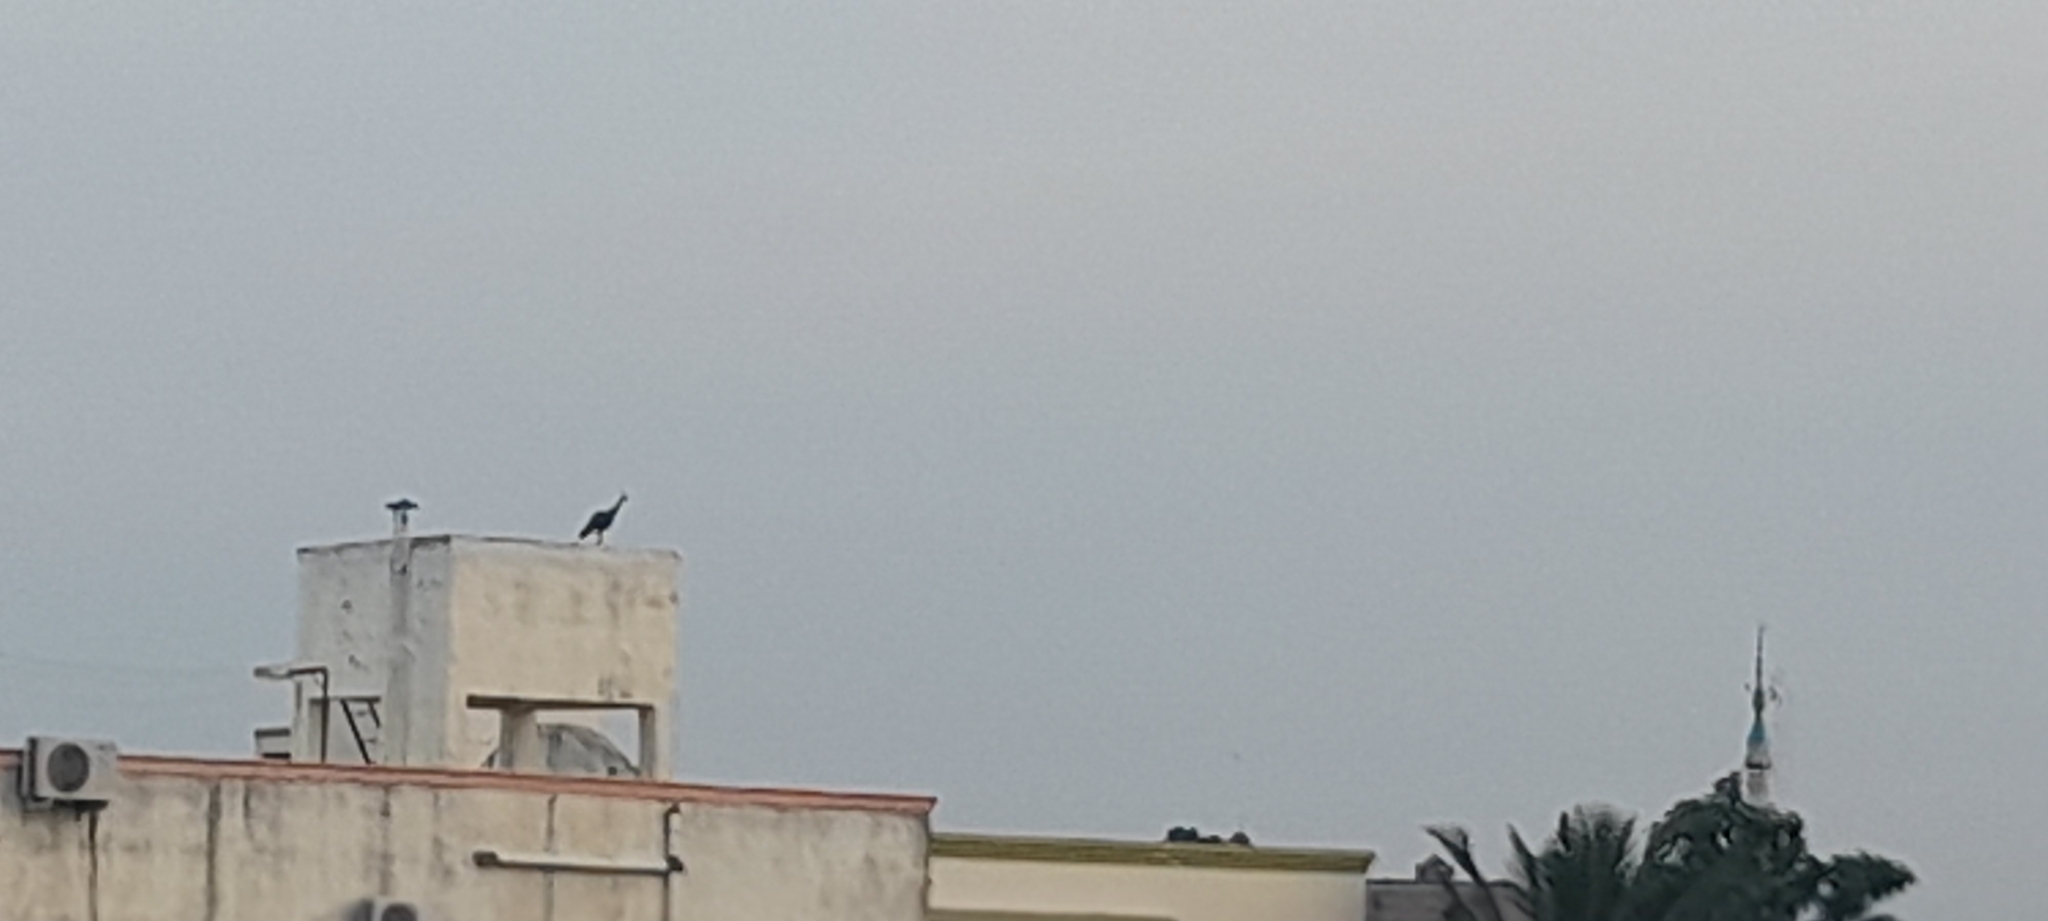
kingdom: Animalia
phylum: Chordata
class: Aves
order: Galliformes
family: Phasianidae
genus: Pavo
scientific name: Pavo cristatus
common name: Indian peafowl
